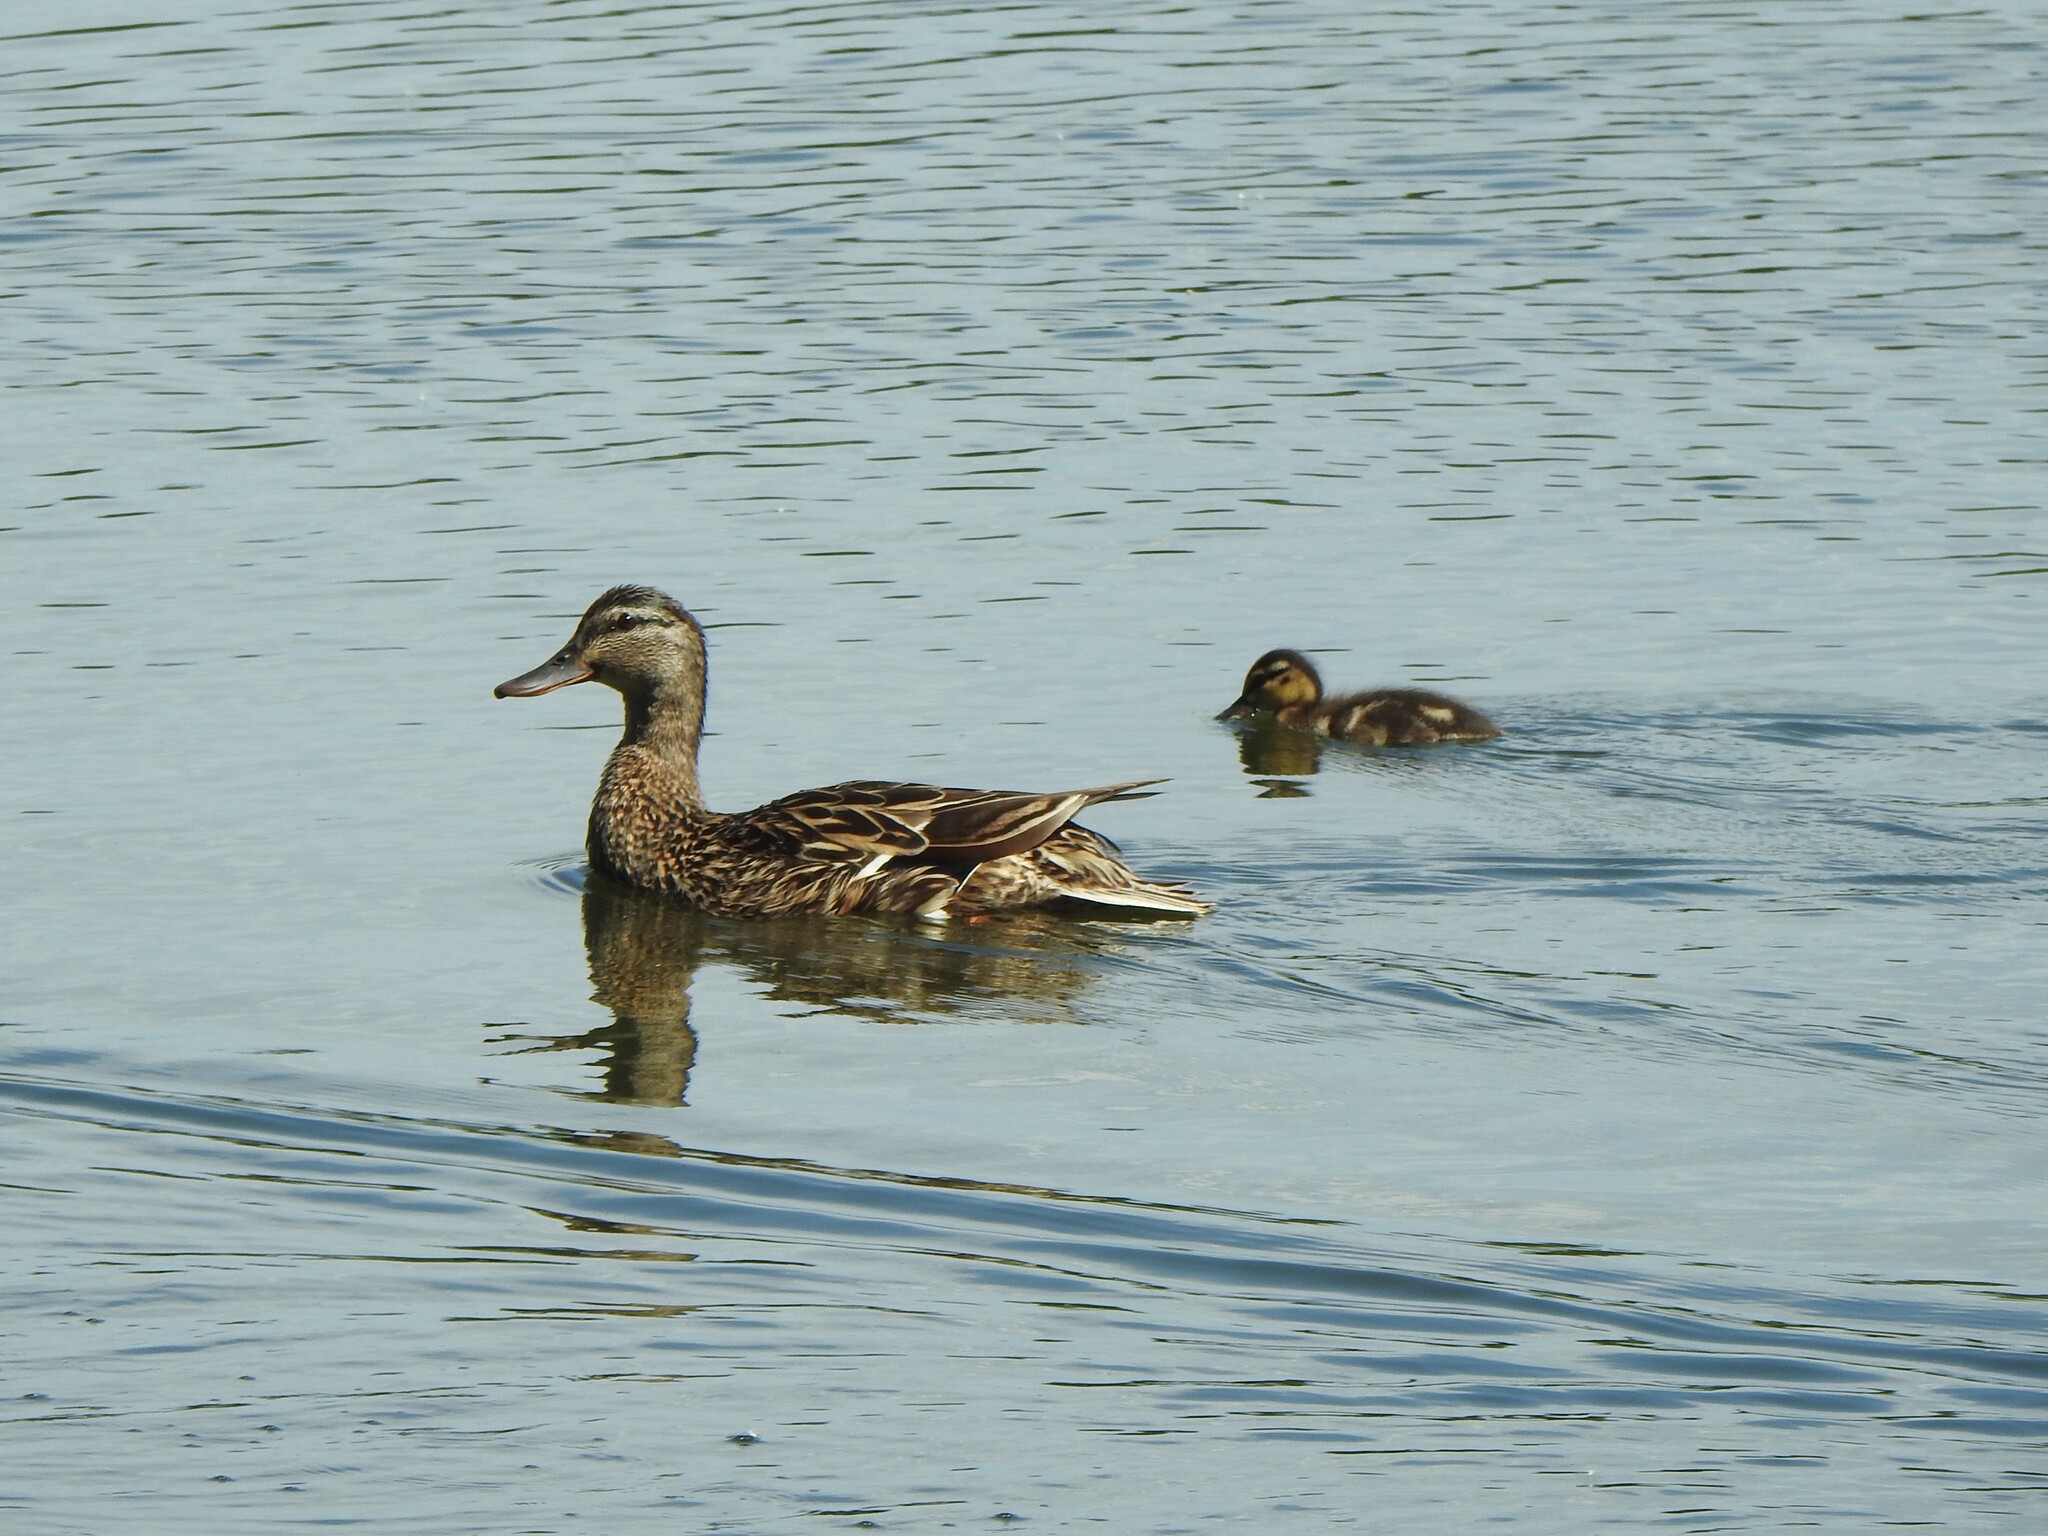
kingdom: Animalia
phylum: Chordata
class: Aves
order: Anseriformes
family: Anatidae
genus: Anas
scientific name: Anas platyrhynchos
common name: Mallard
